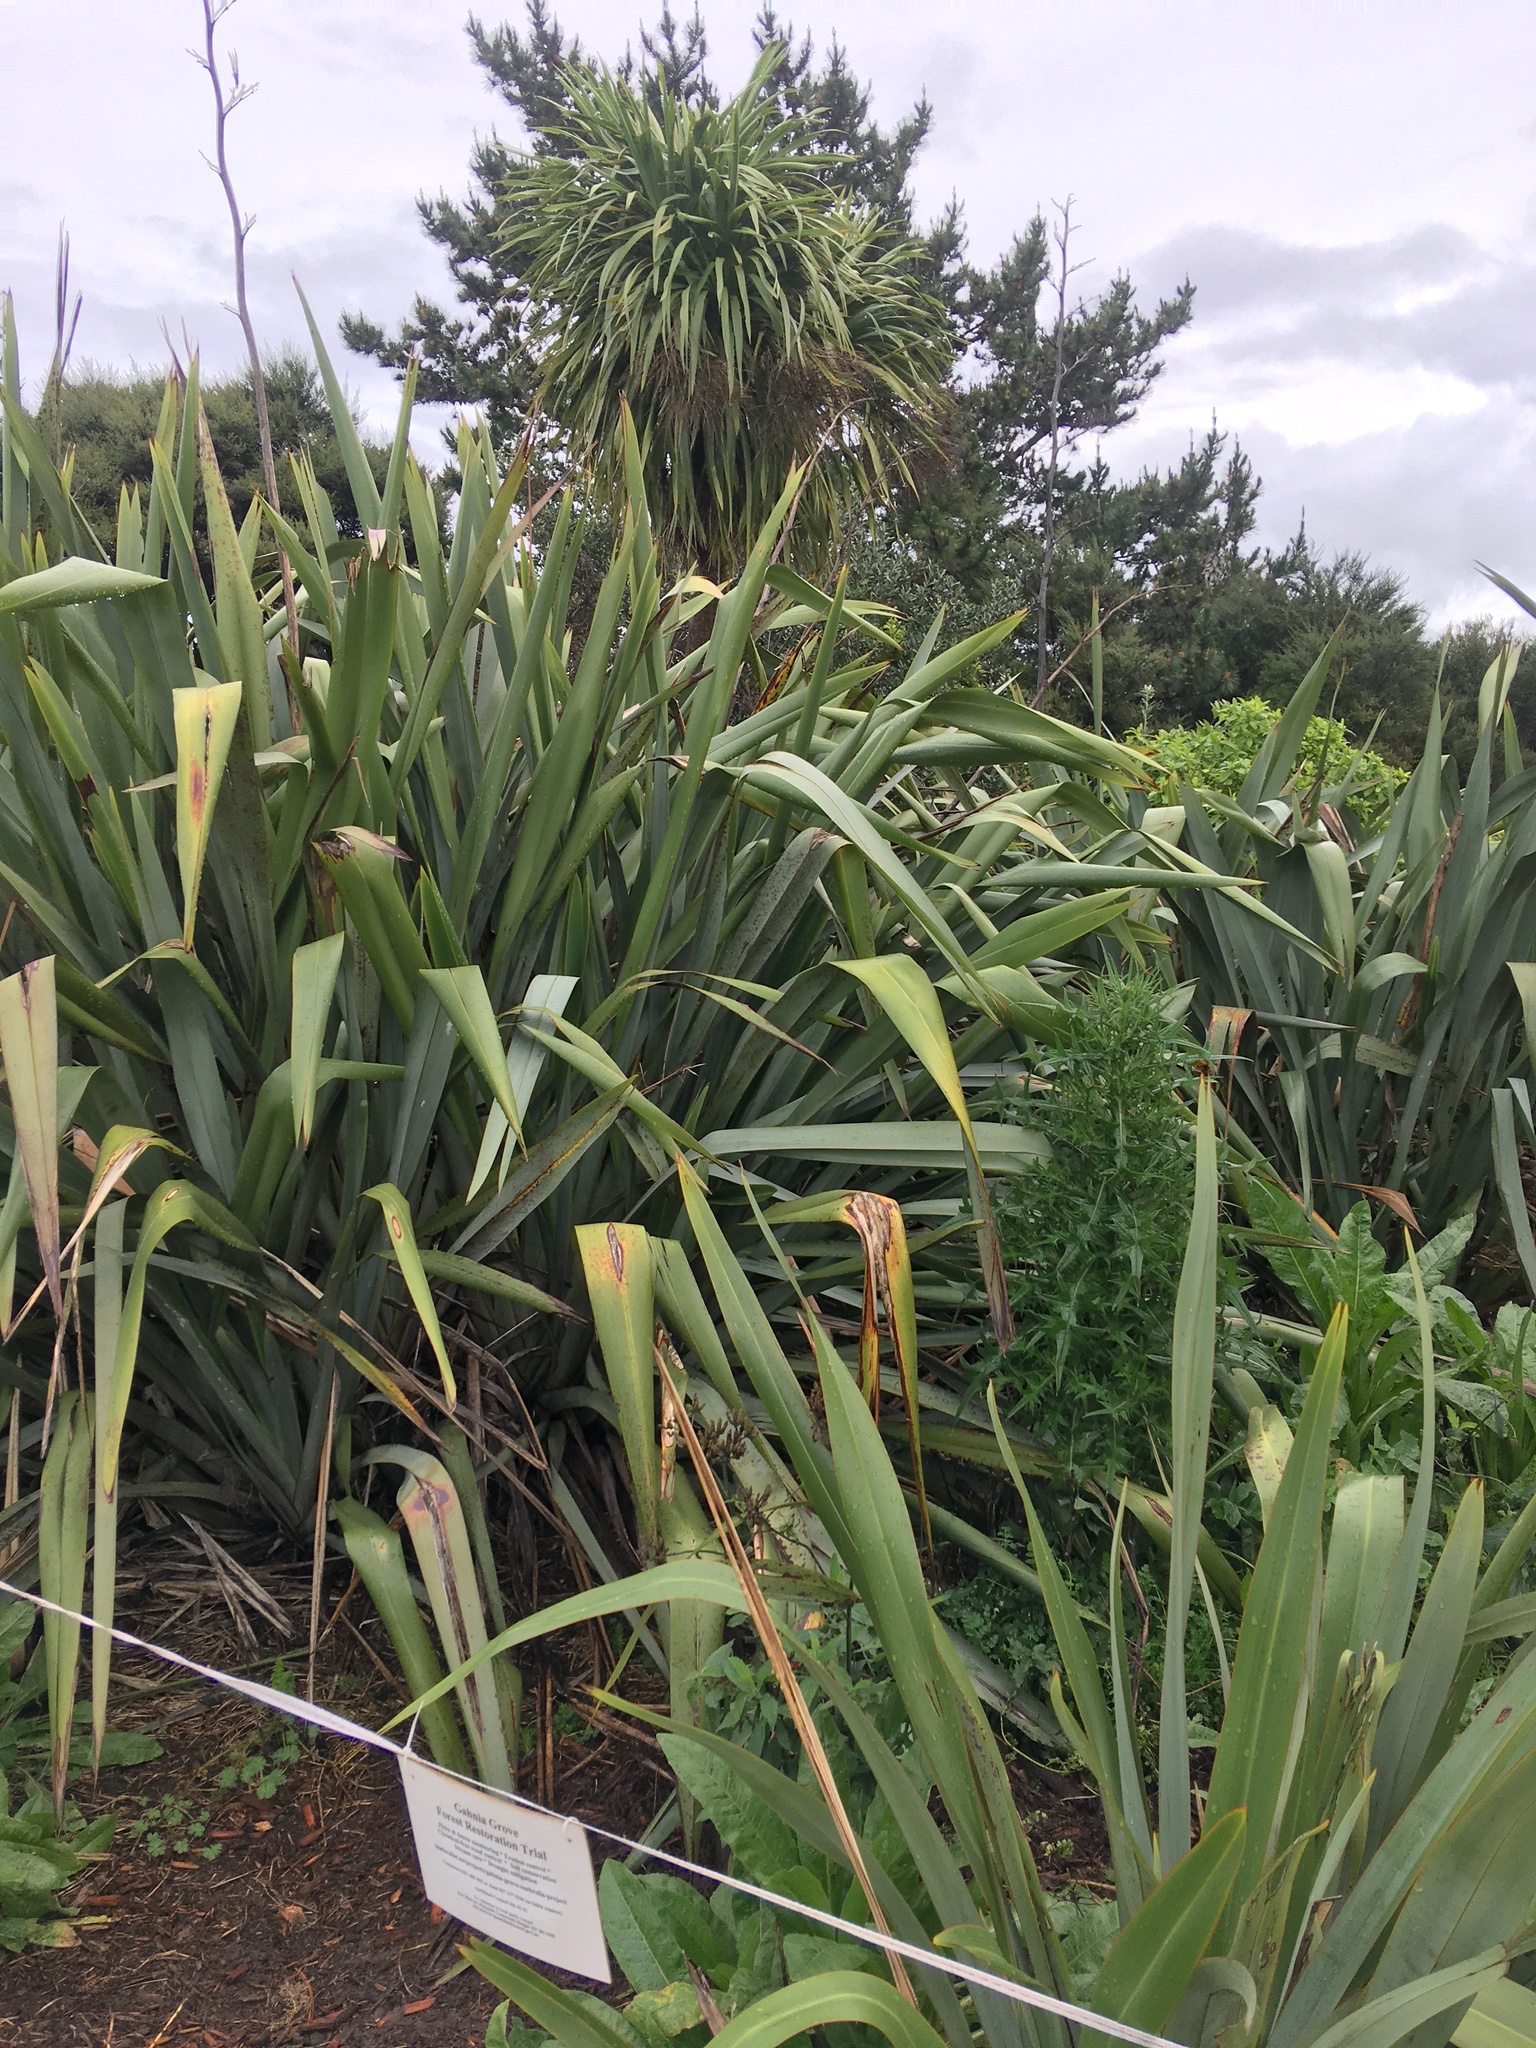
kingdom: Plantae
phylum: Tracheophyta
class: Magnoliopsida
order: Asterales
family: Asteraceae
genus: Cirsium
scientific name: Cirsium vulgare
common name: Bull thistle
